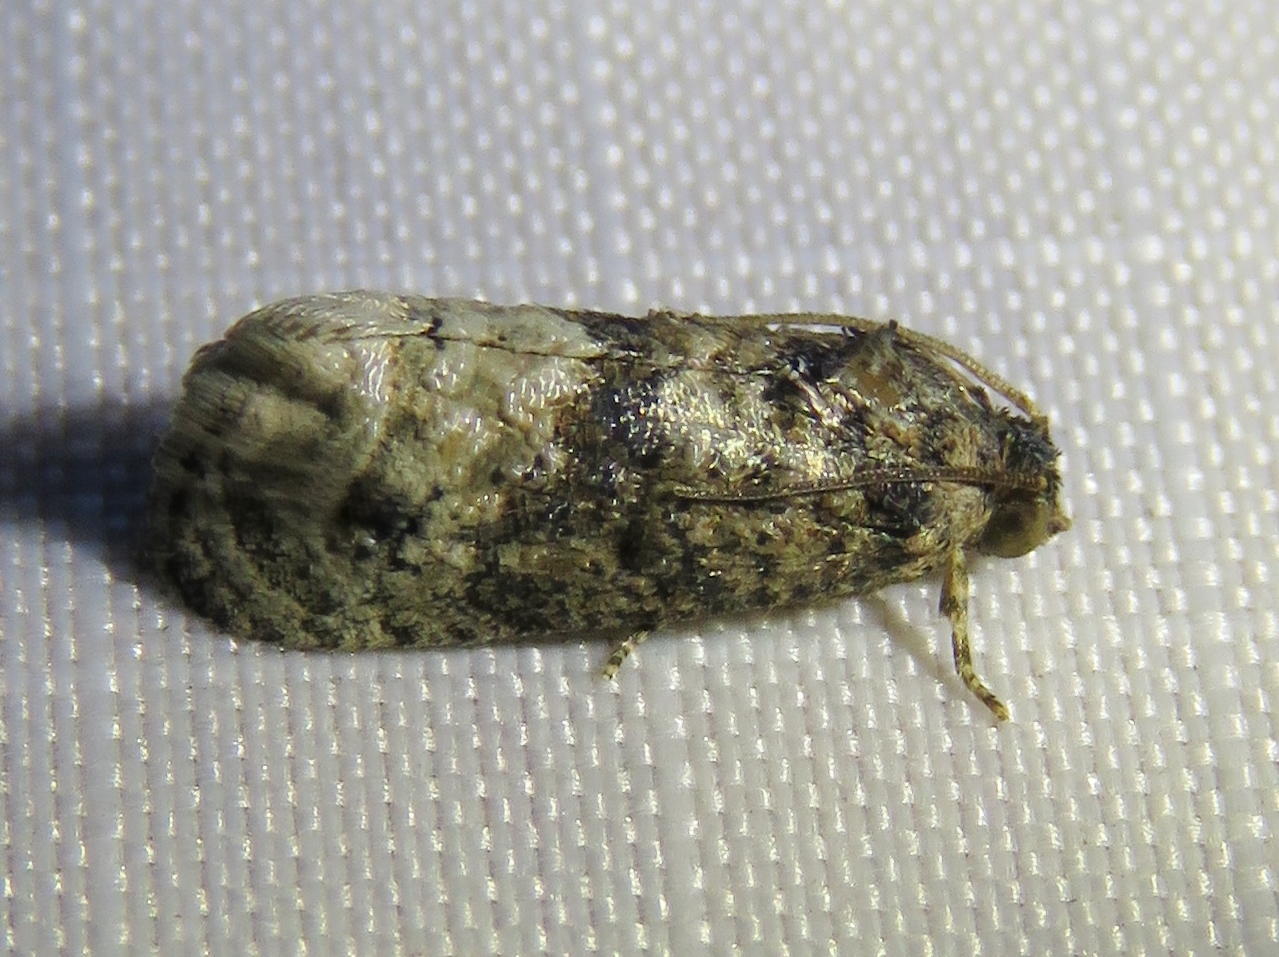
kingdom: Animalia
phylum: Arthropoda
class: Insecta
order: Lepidoptera
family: Tortricidae
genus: Ecdytolopha
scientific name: Ecdytolopha mana
